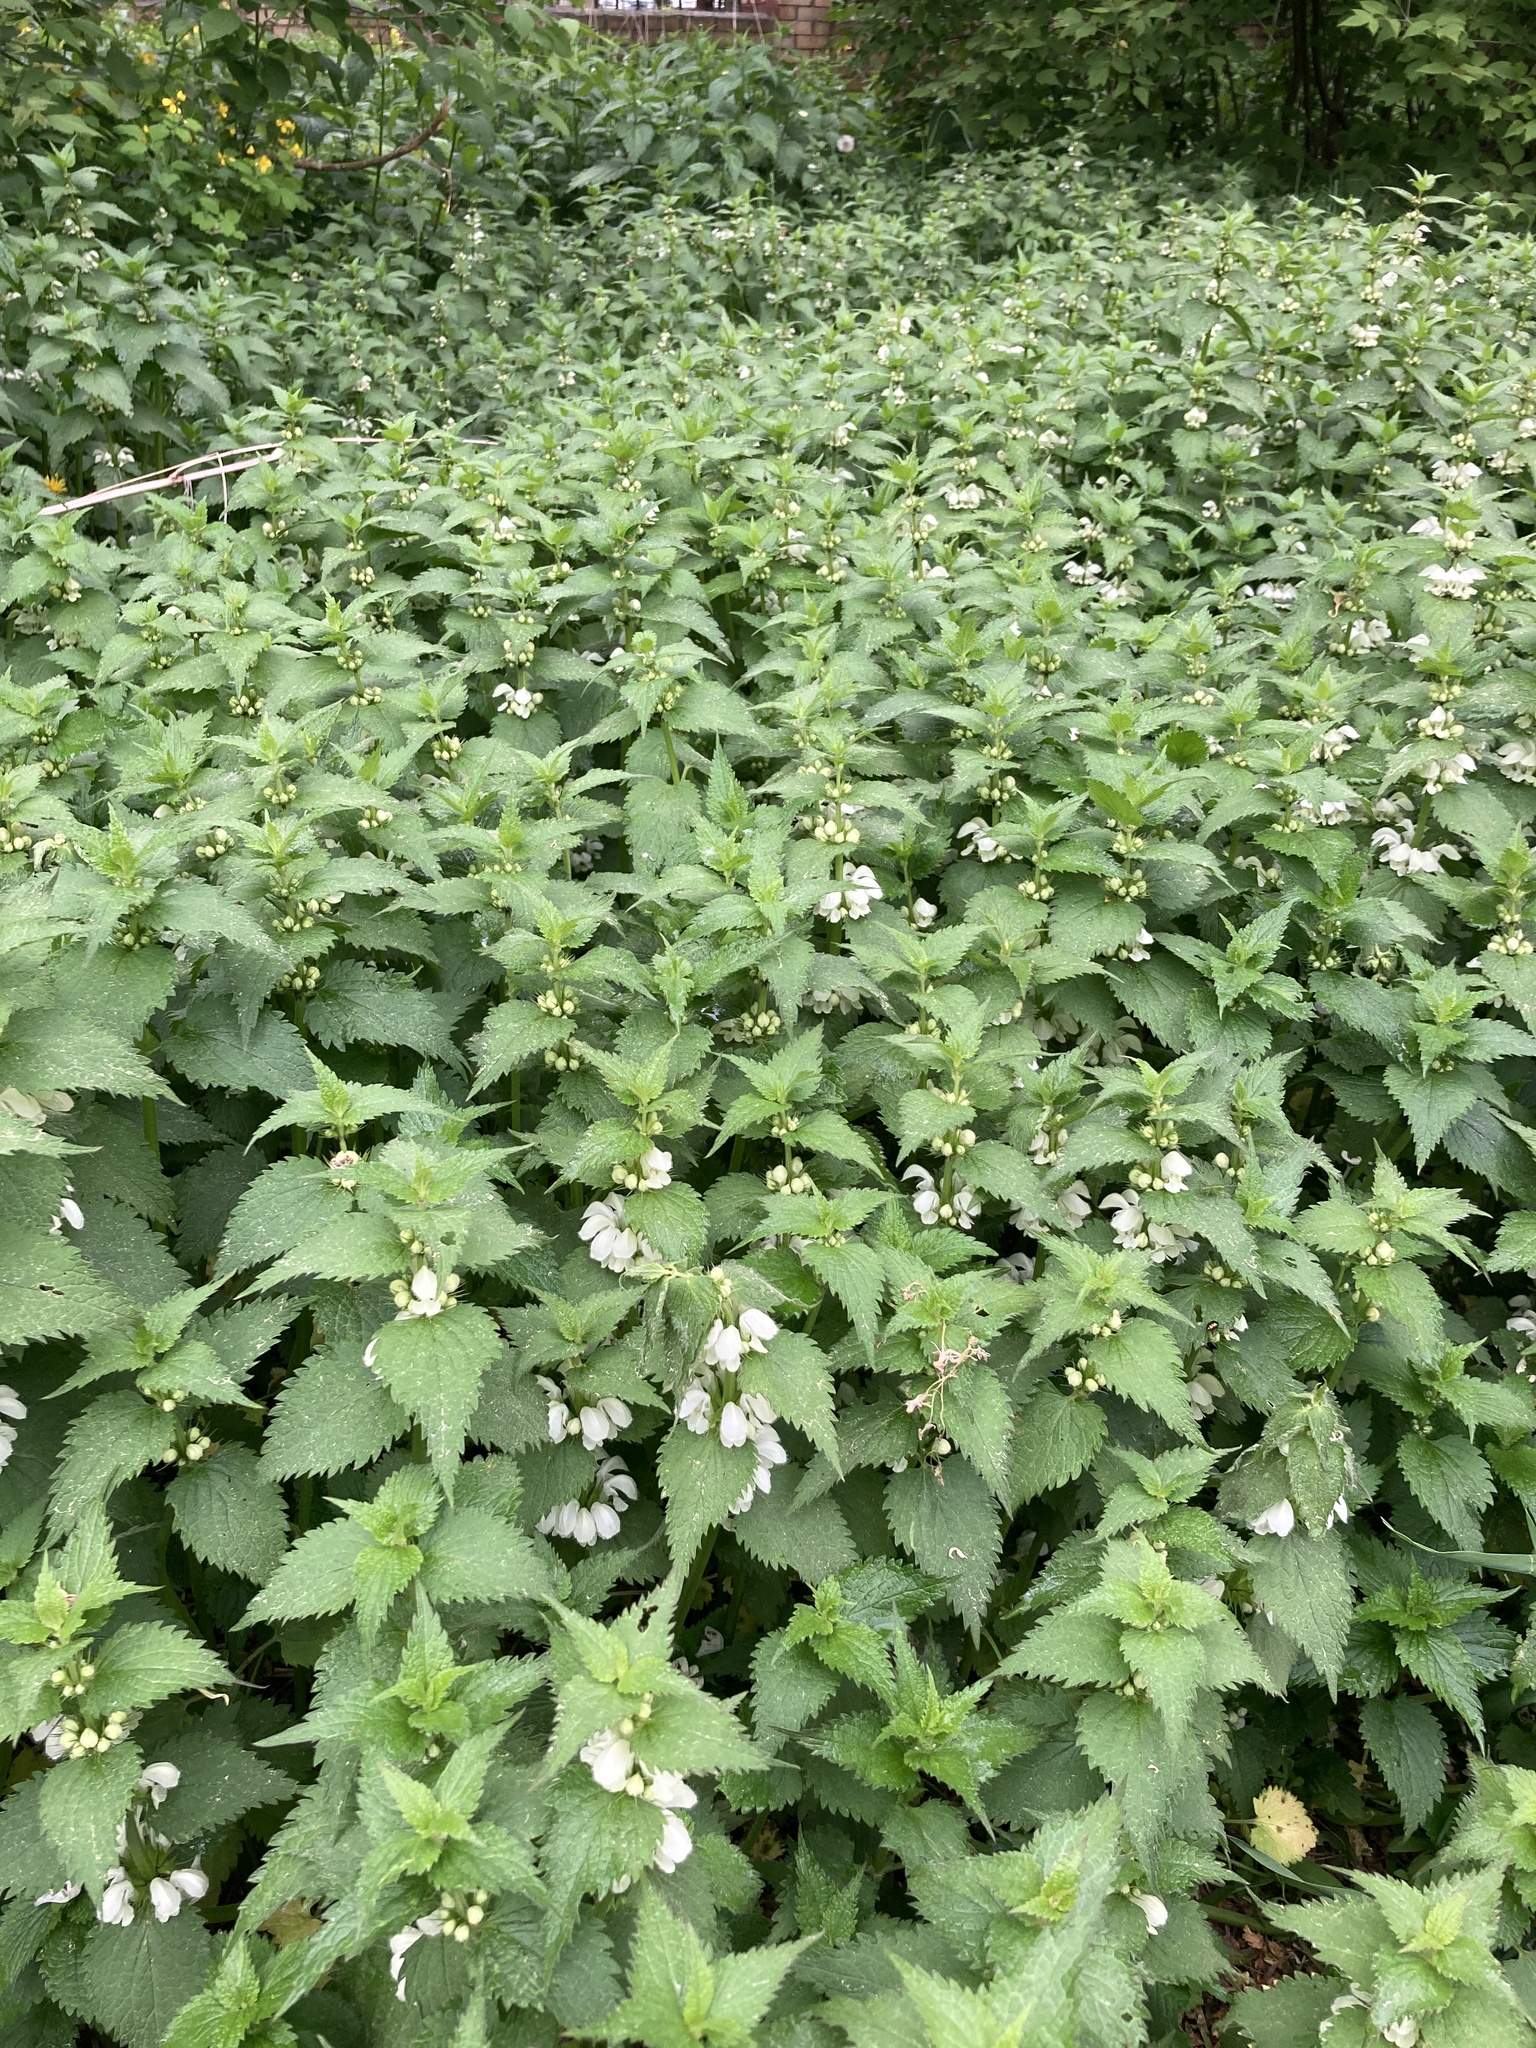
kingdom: Plantae
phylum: Tracheophyta
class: Magnoliopsida
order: Lamiales
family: Lamiaceae
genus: Lamium
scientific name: Lamium album
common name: White dead-nettle
